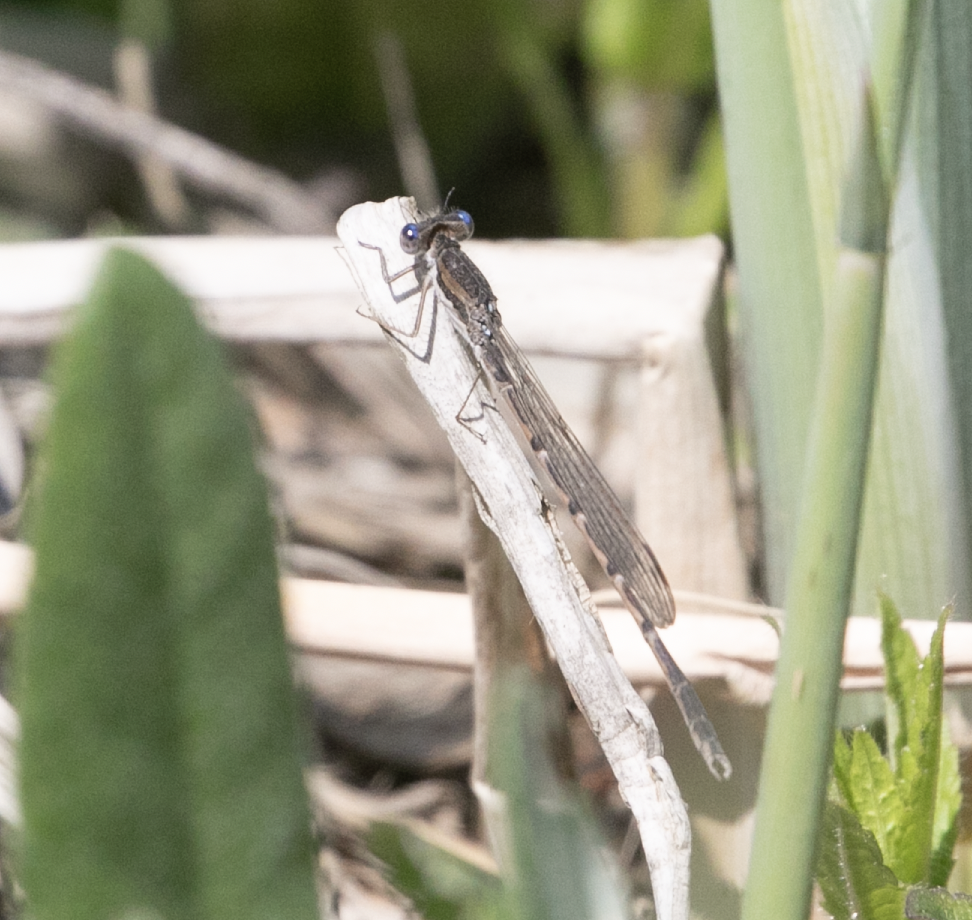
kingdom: Animalia
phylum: Arthropoda
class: Insecta
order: Odonata
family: Lestidae
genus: Sympecma
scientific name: Sympecma fusca
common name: Common winter damsel
